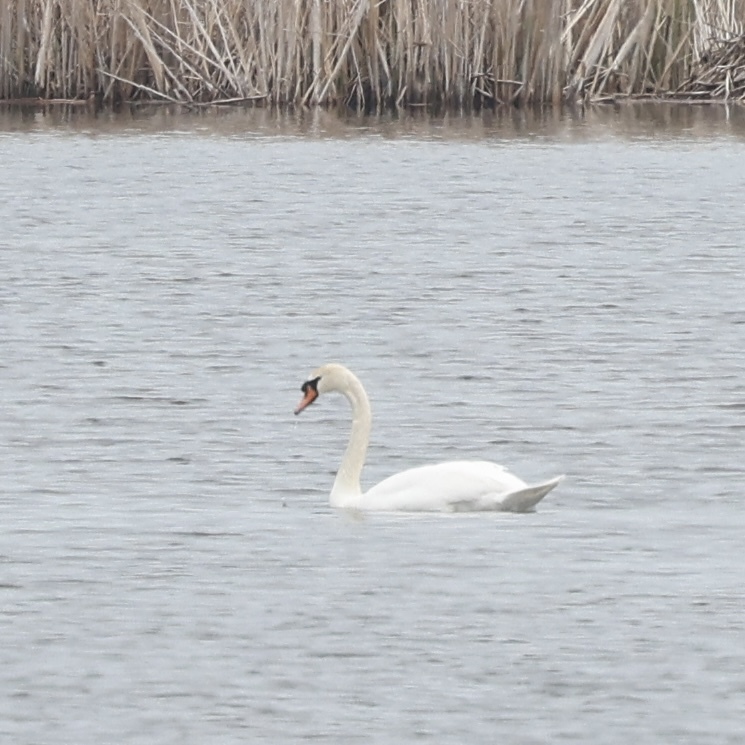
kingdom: Animalia
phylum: Chordata
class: Aves
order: Anseriformes
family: Anatidae
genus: Cygnus
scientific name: Cygnus olor
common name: Mute swan
